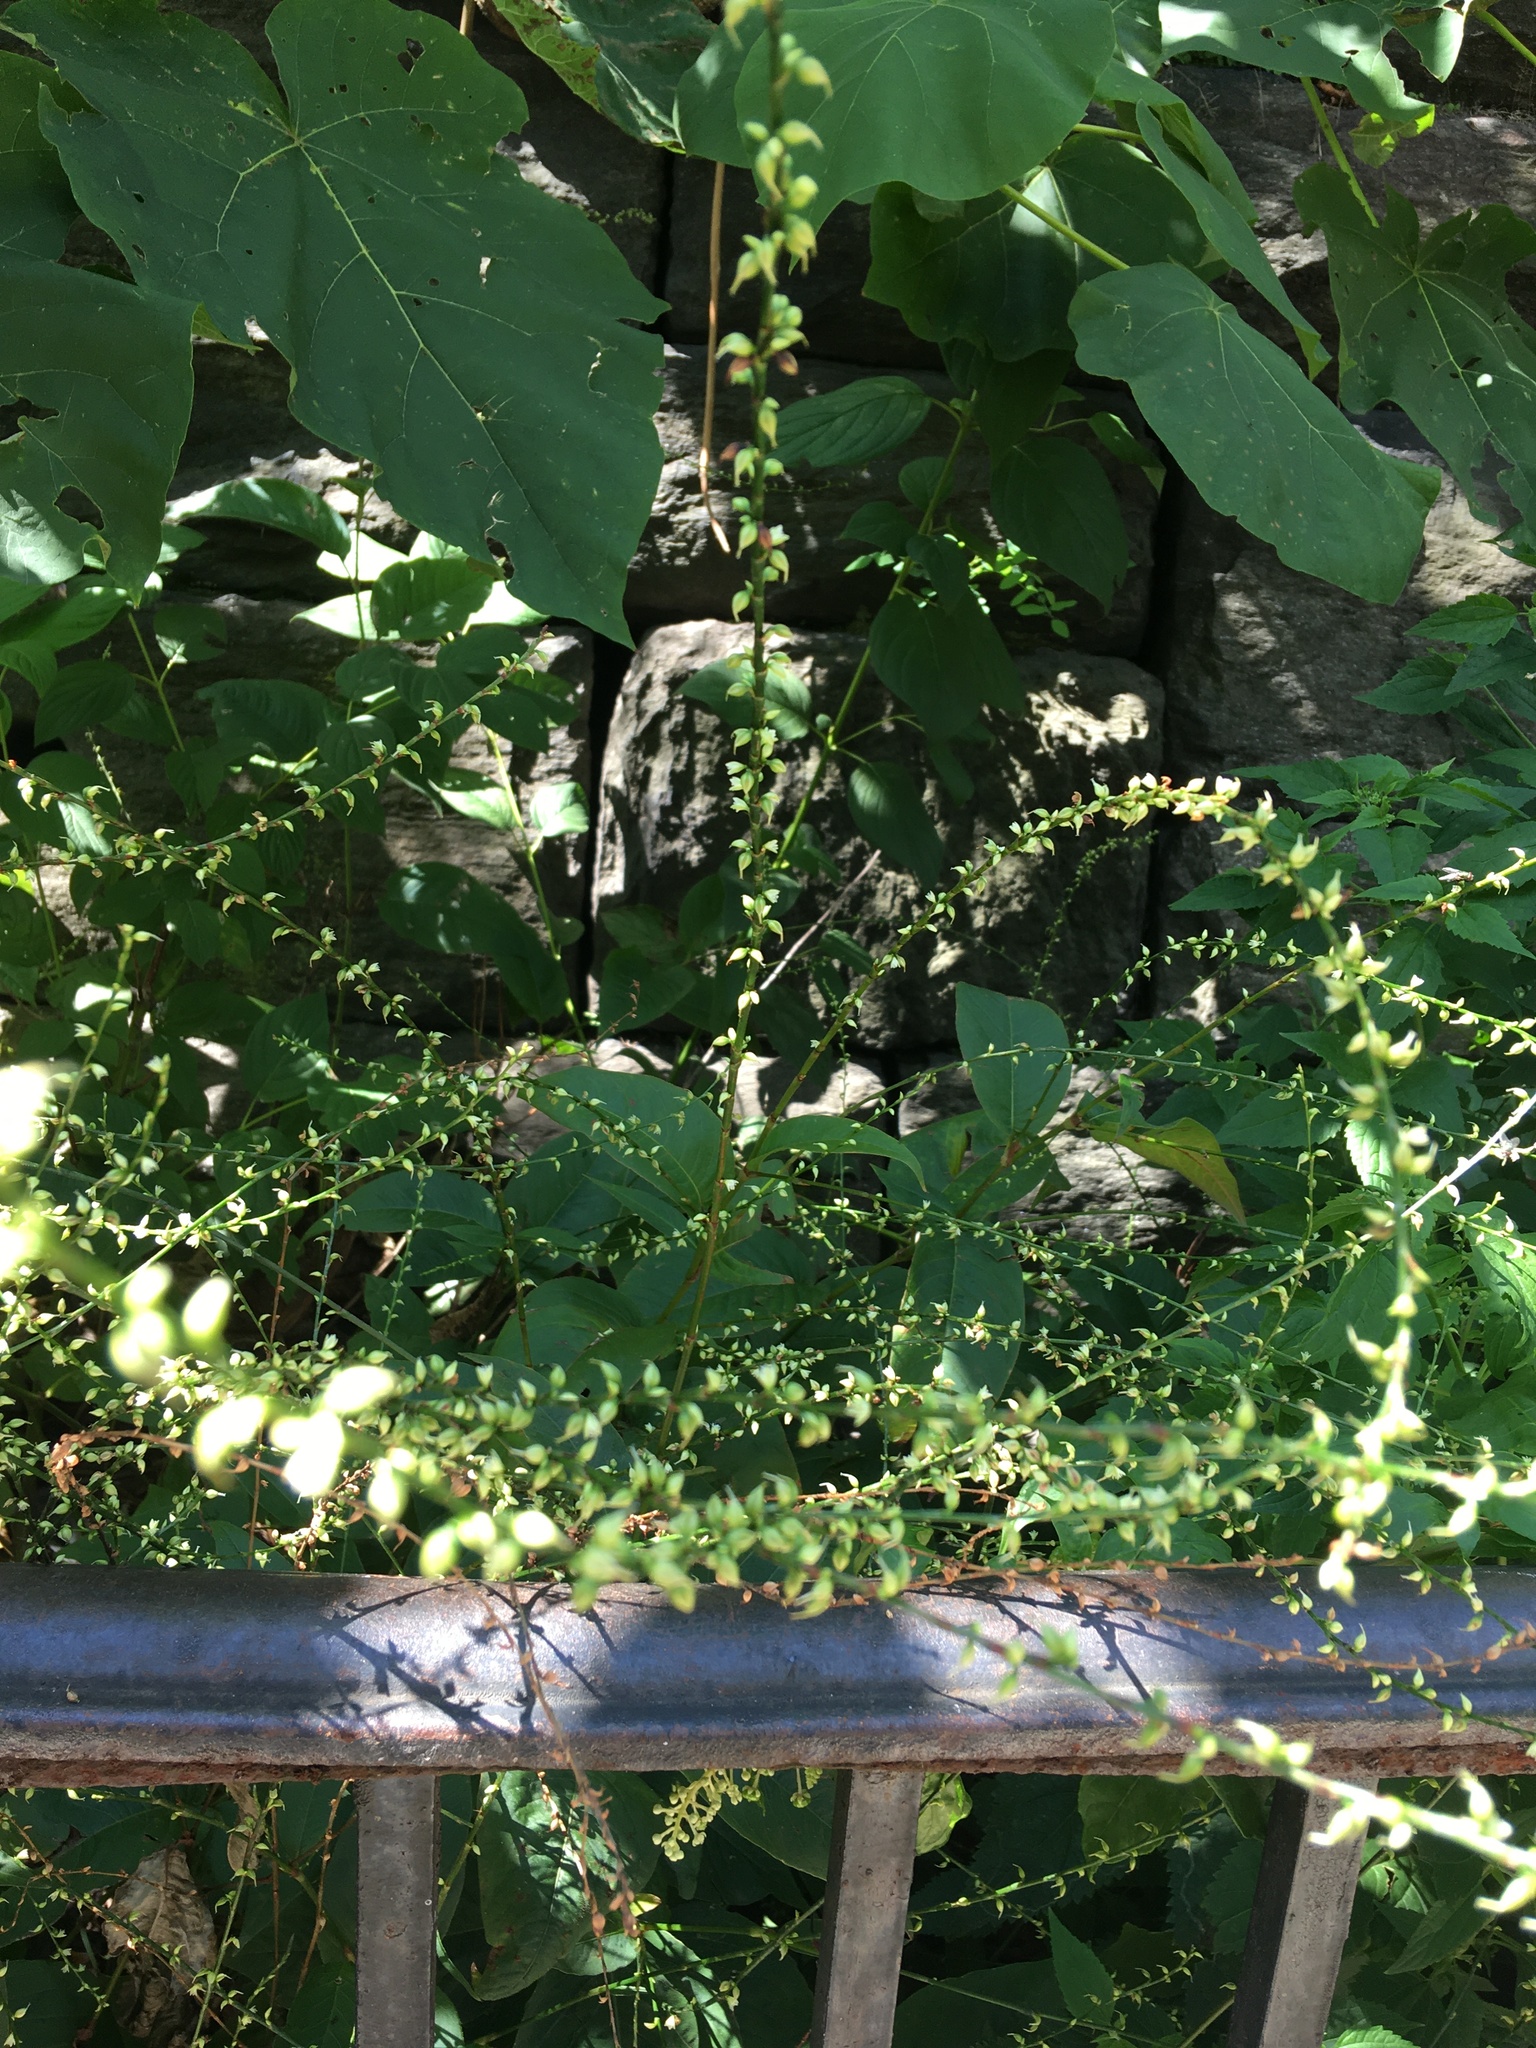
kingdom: Plantae
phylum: Tracheophyta
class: Magnoliopsida
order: Caryophyllales
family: Polygonaceae
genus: Persicaria
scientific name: Persicaria virginiana
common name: Jumpseed
